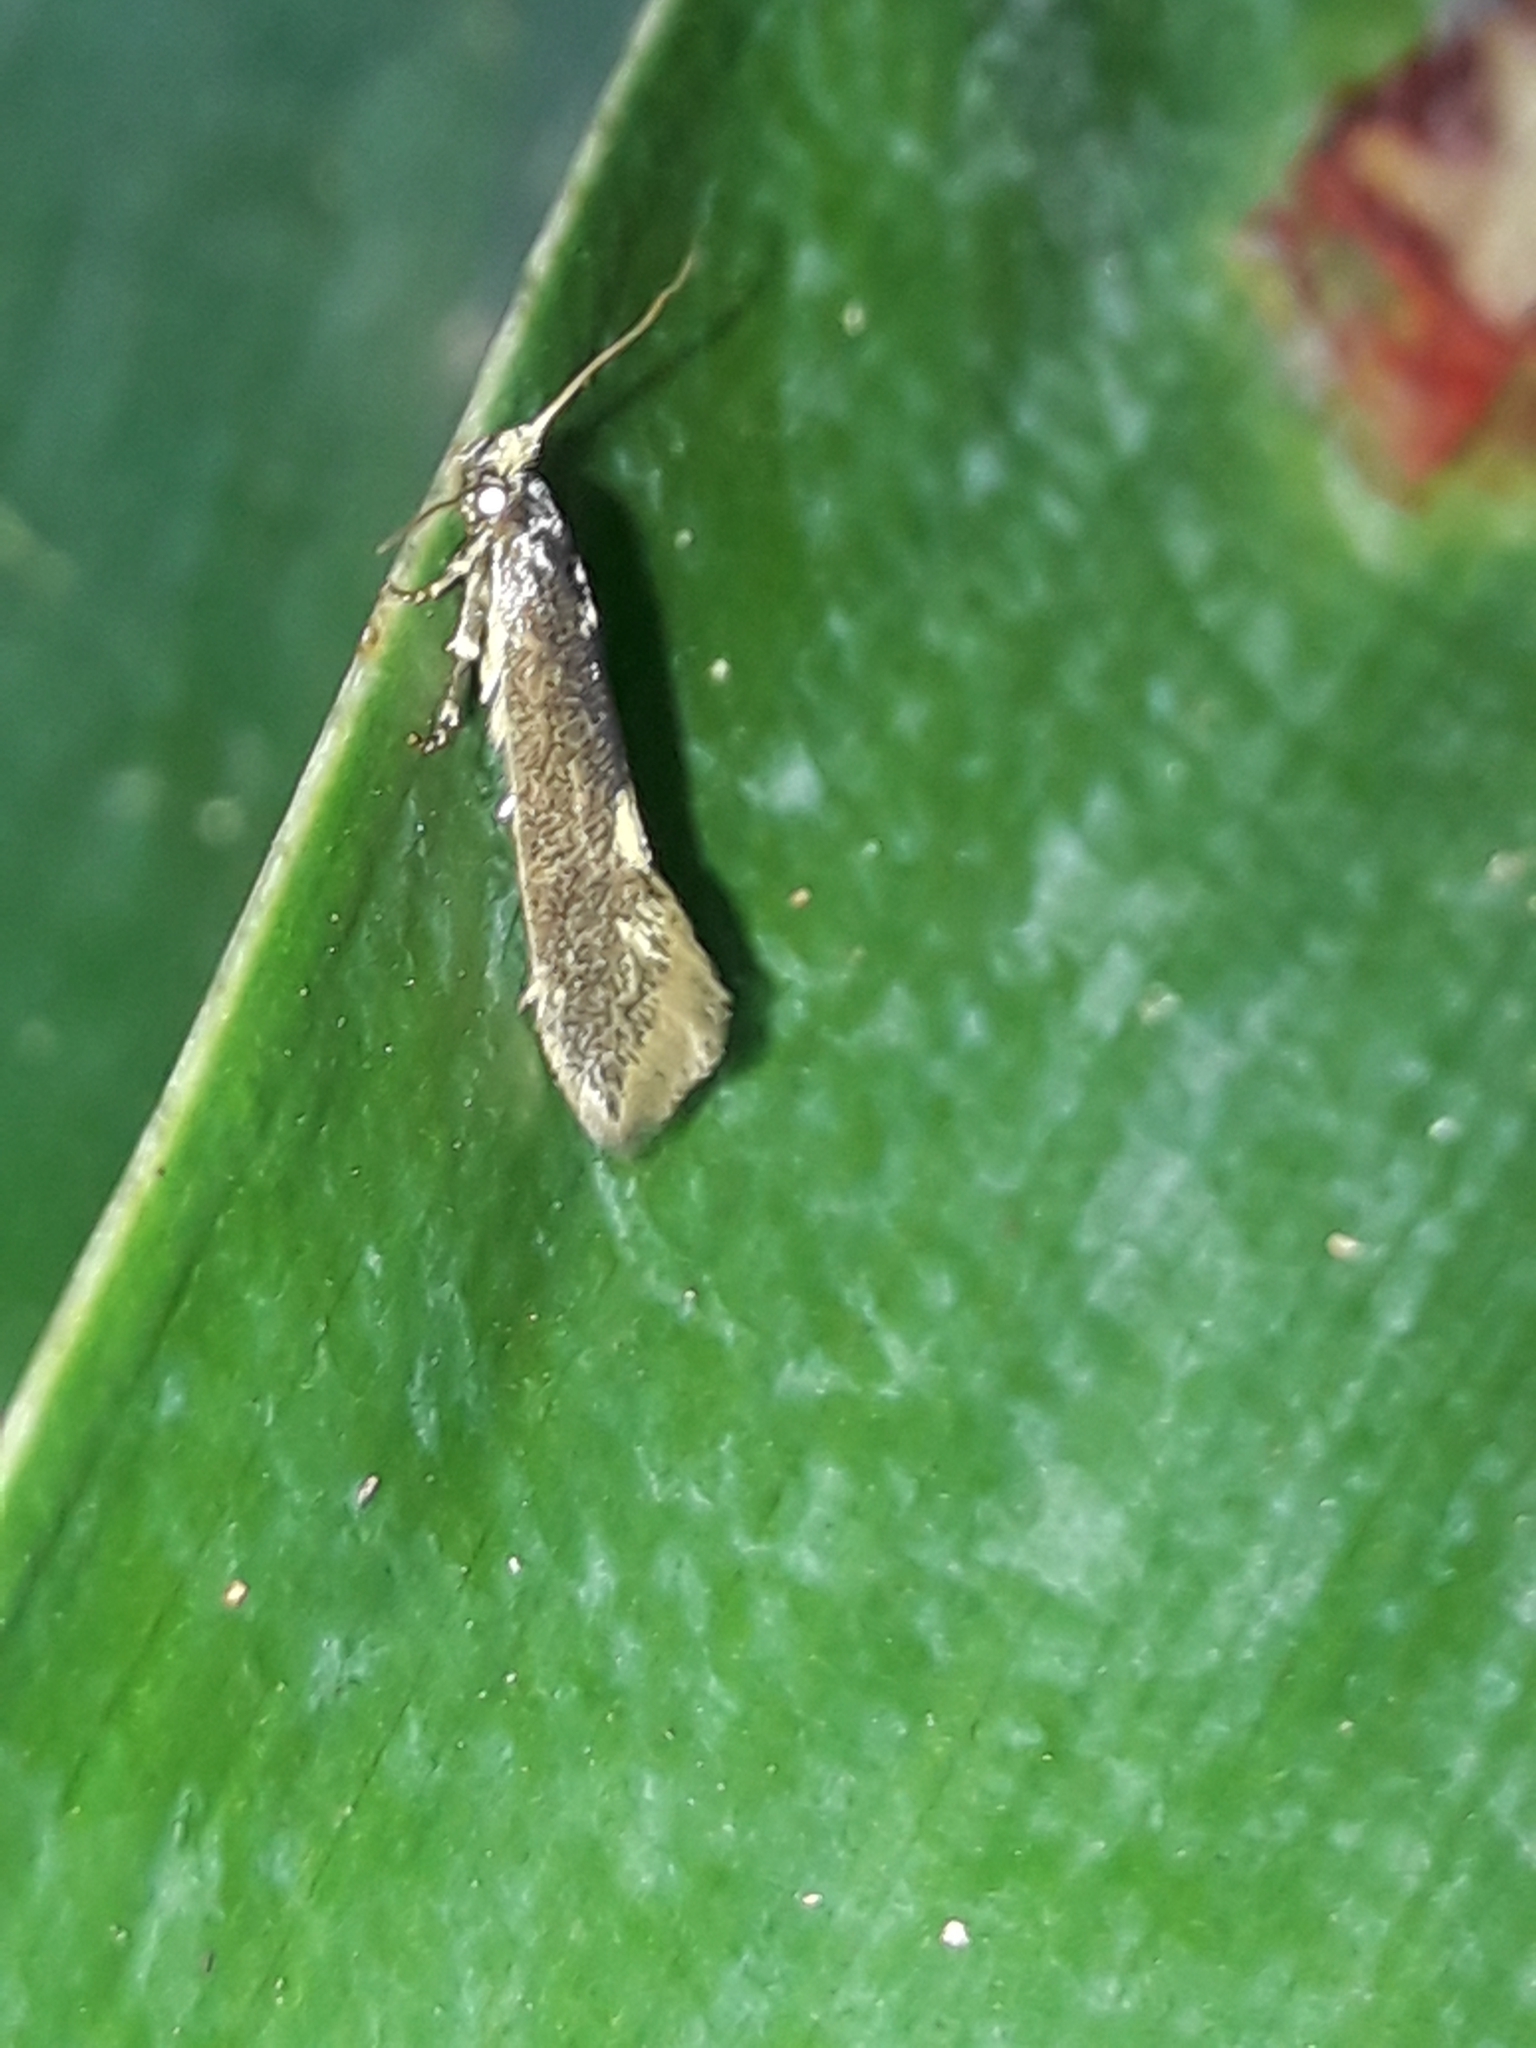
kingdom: Animalia
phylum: Arthropoda
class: Insecta
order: Lepidoptera
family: Tineidae
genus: Opogona
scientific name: Opogona omoscopa
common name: Moth
